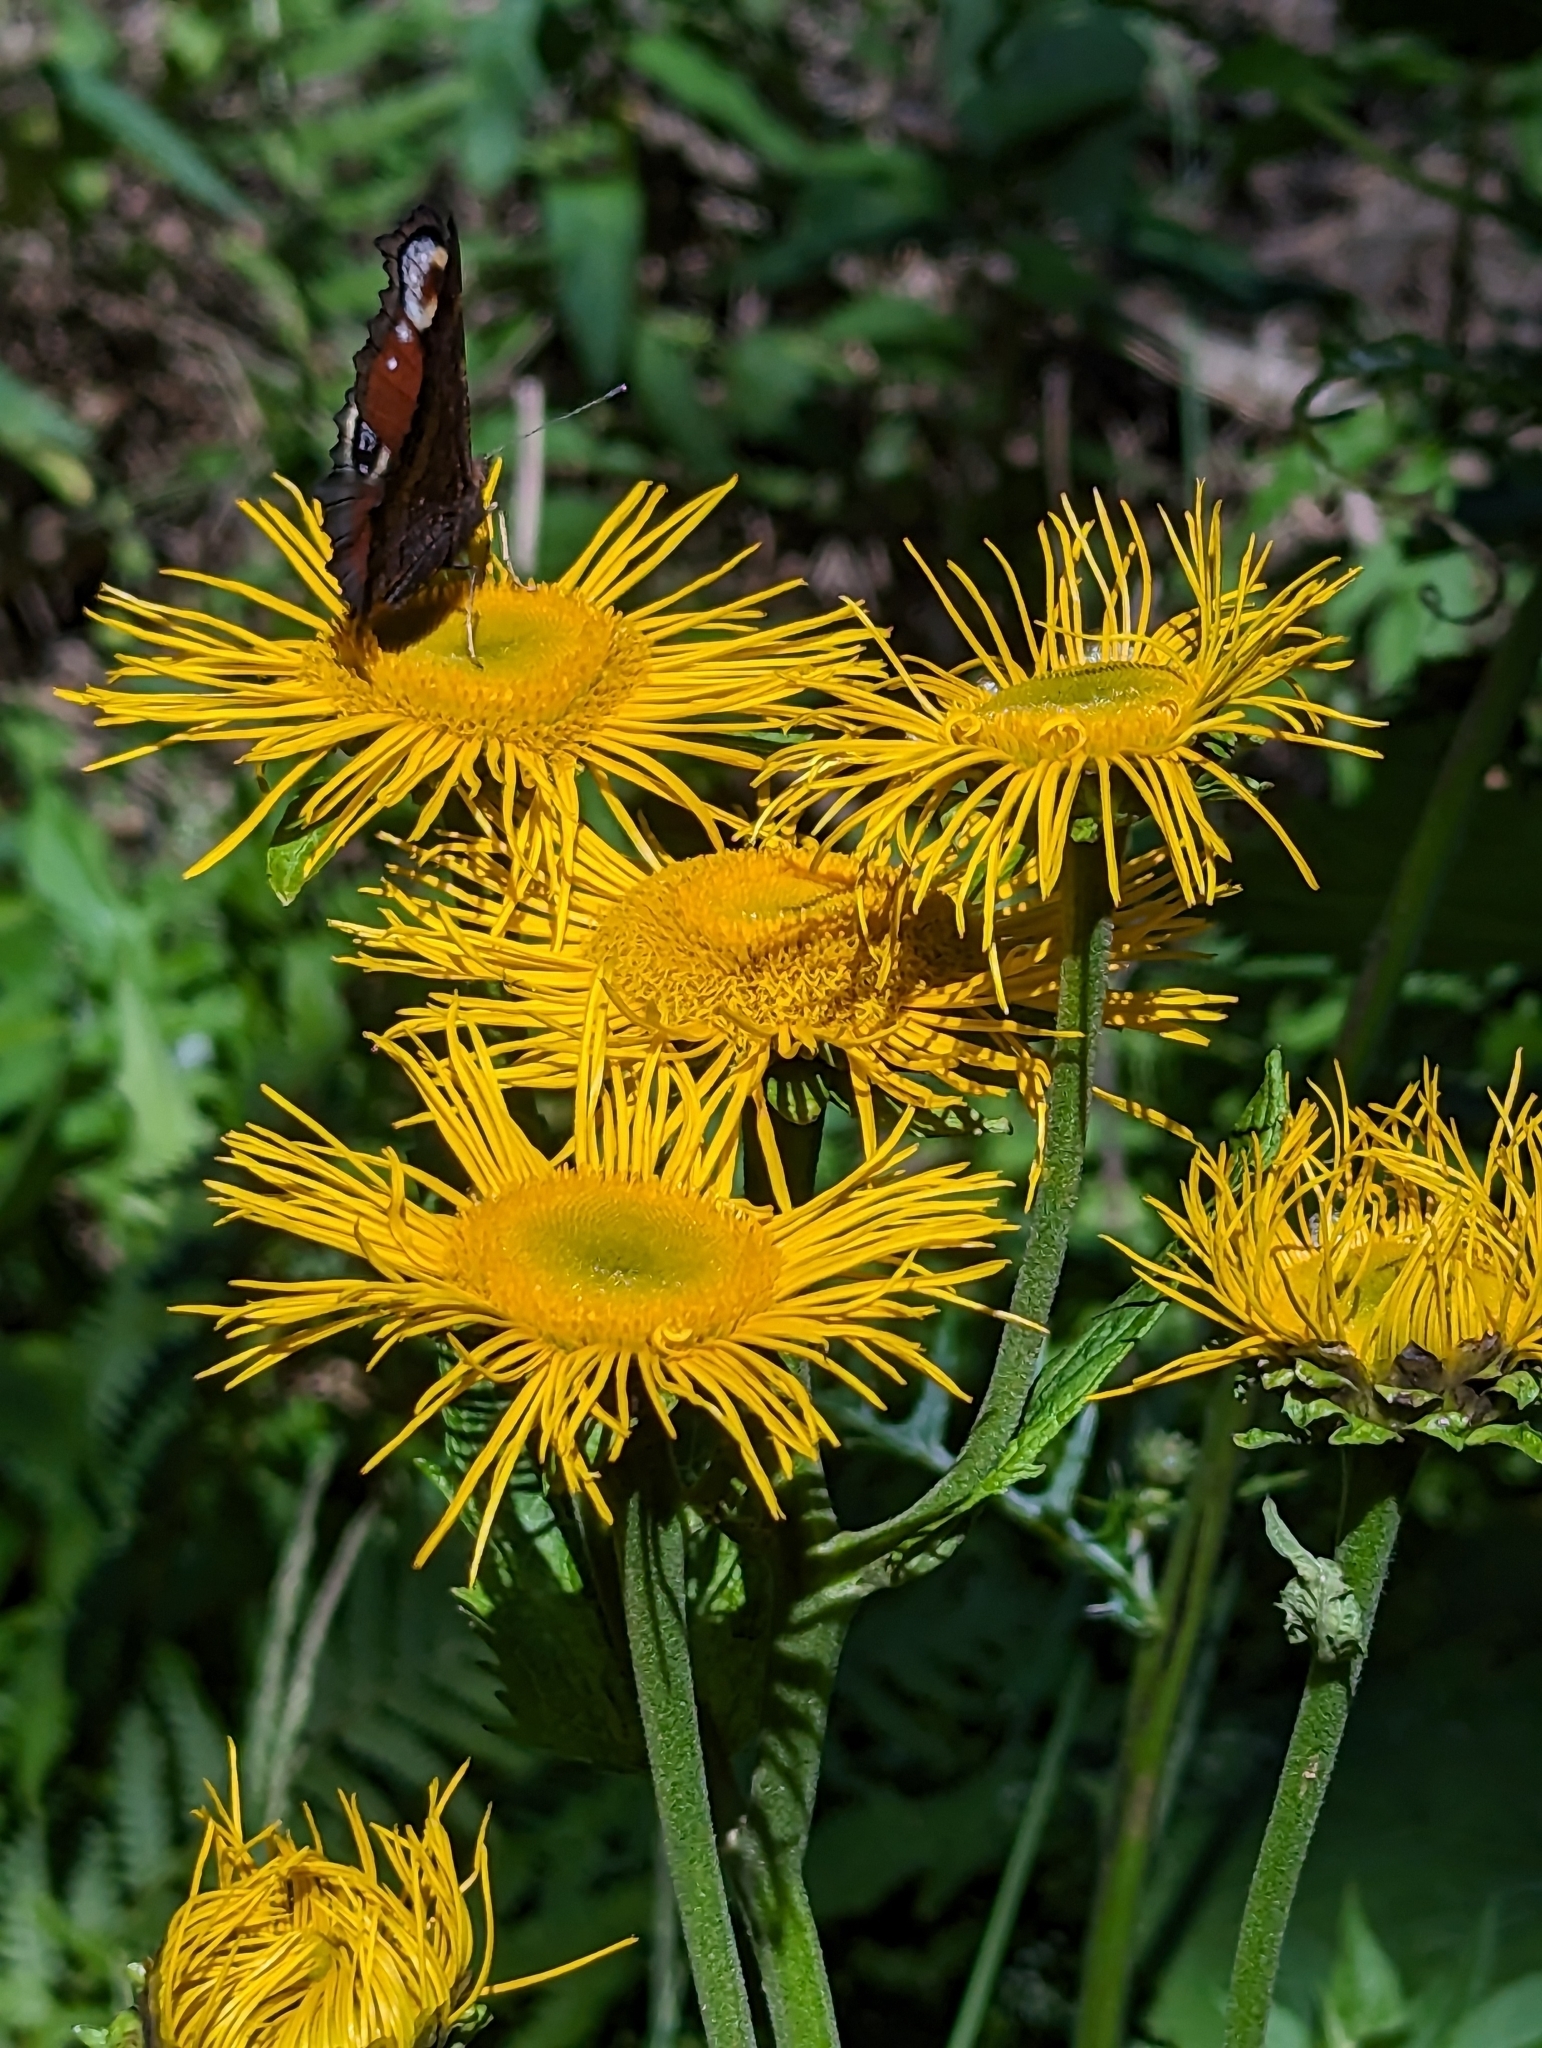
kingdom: Plantae
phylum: Tracheophyta
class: Magnoliopsida
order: Asterales
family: Asteraceae
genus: Telekia
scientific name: Telekia speciosa
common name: Yellow oxeye
